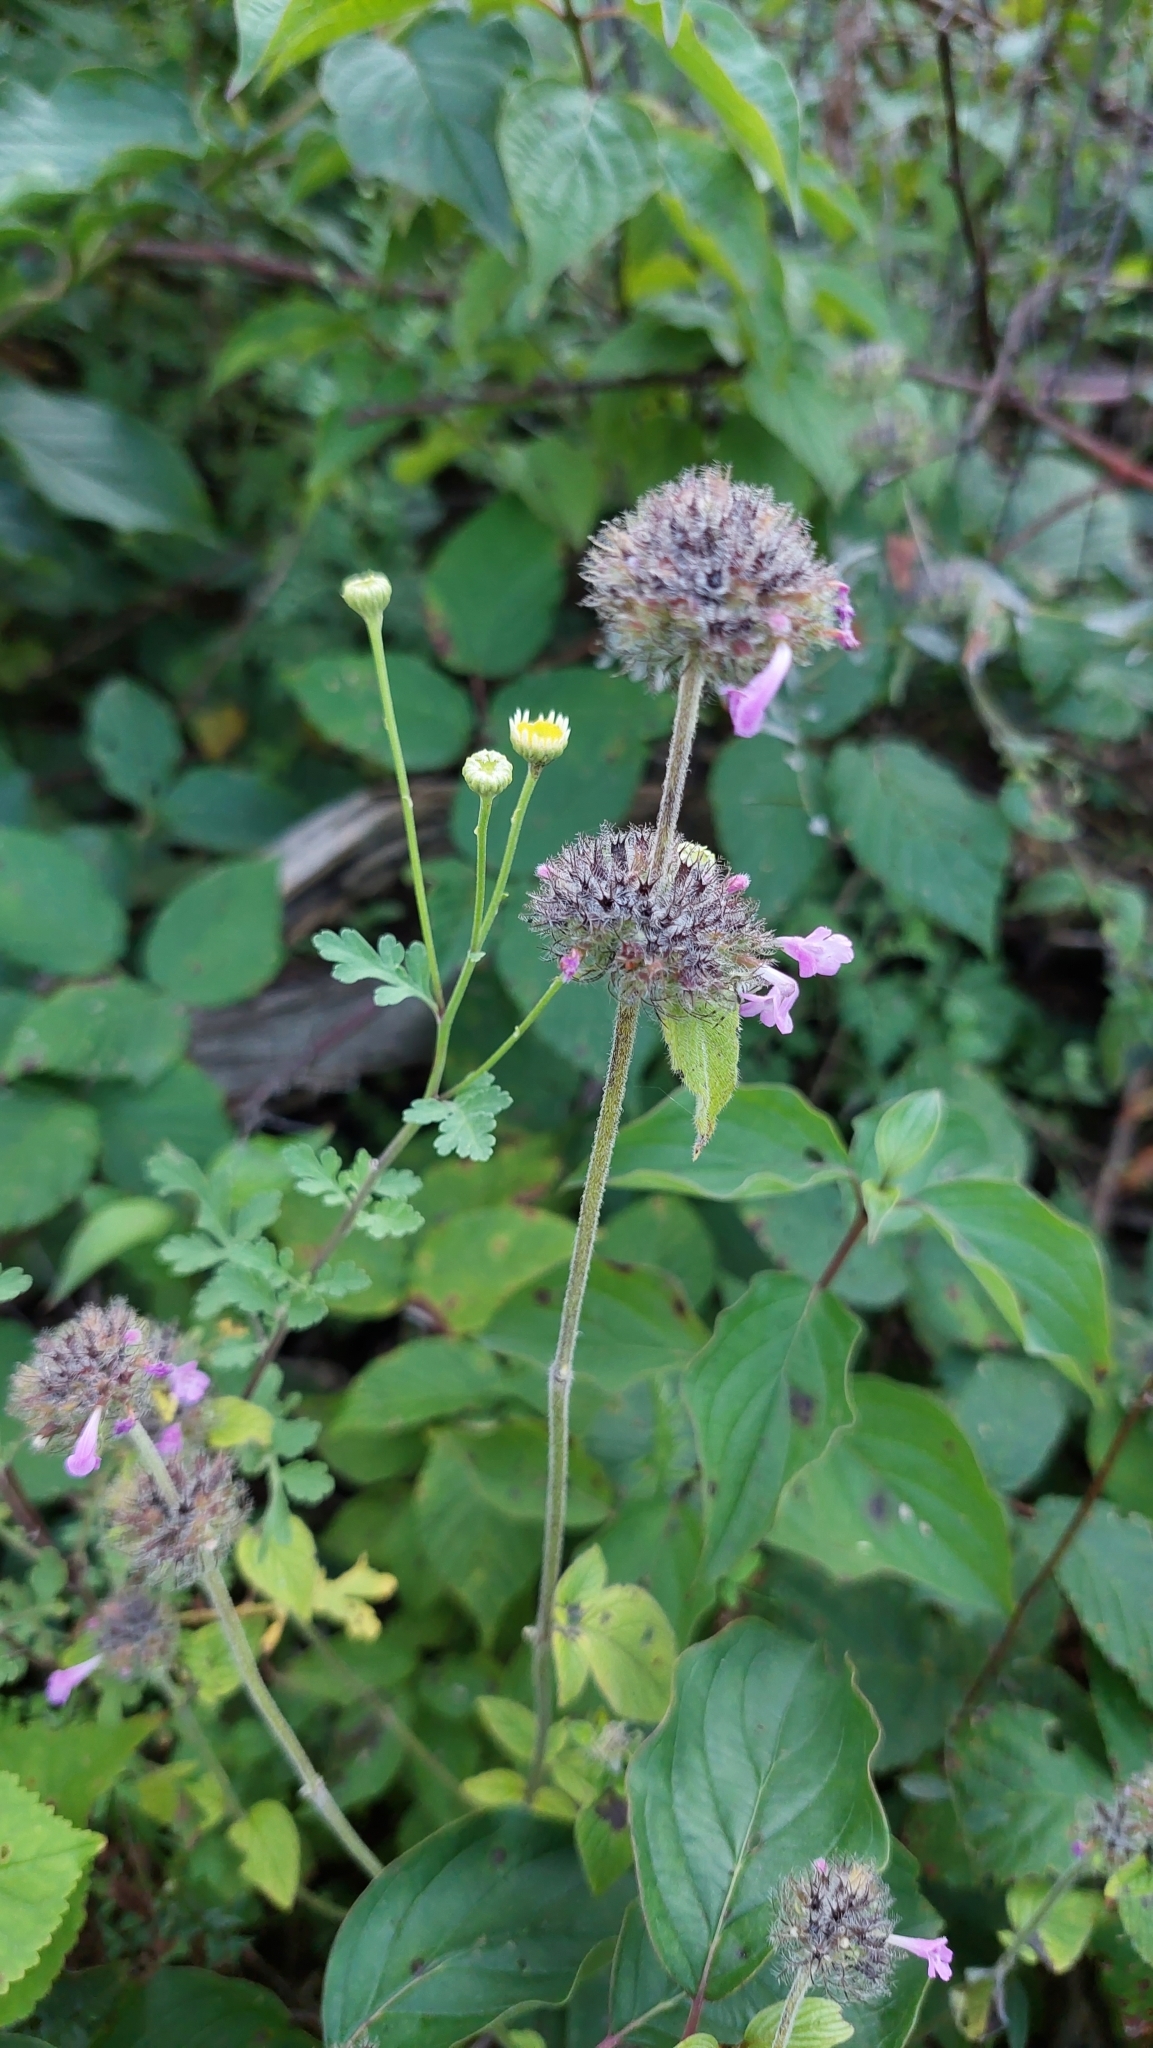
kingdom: Plantae
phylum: Tracheophyta
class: Magnoliopsida
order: Lamiales
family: Lamiaceae
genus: Clinopodium
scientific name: Clinopodium caucasicum
